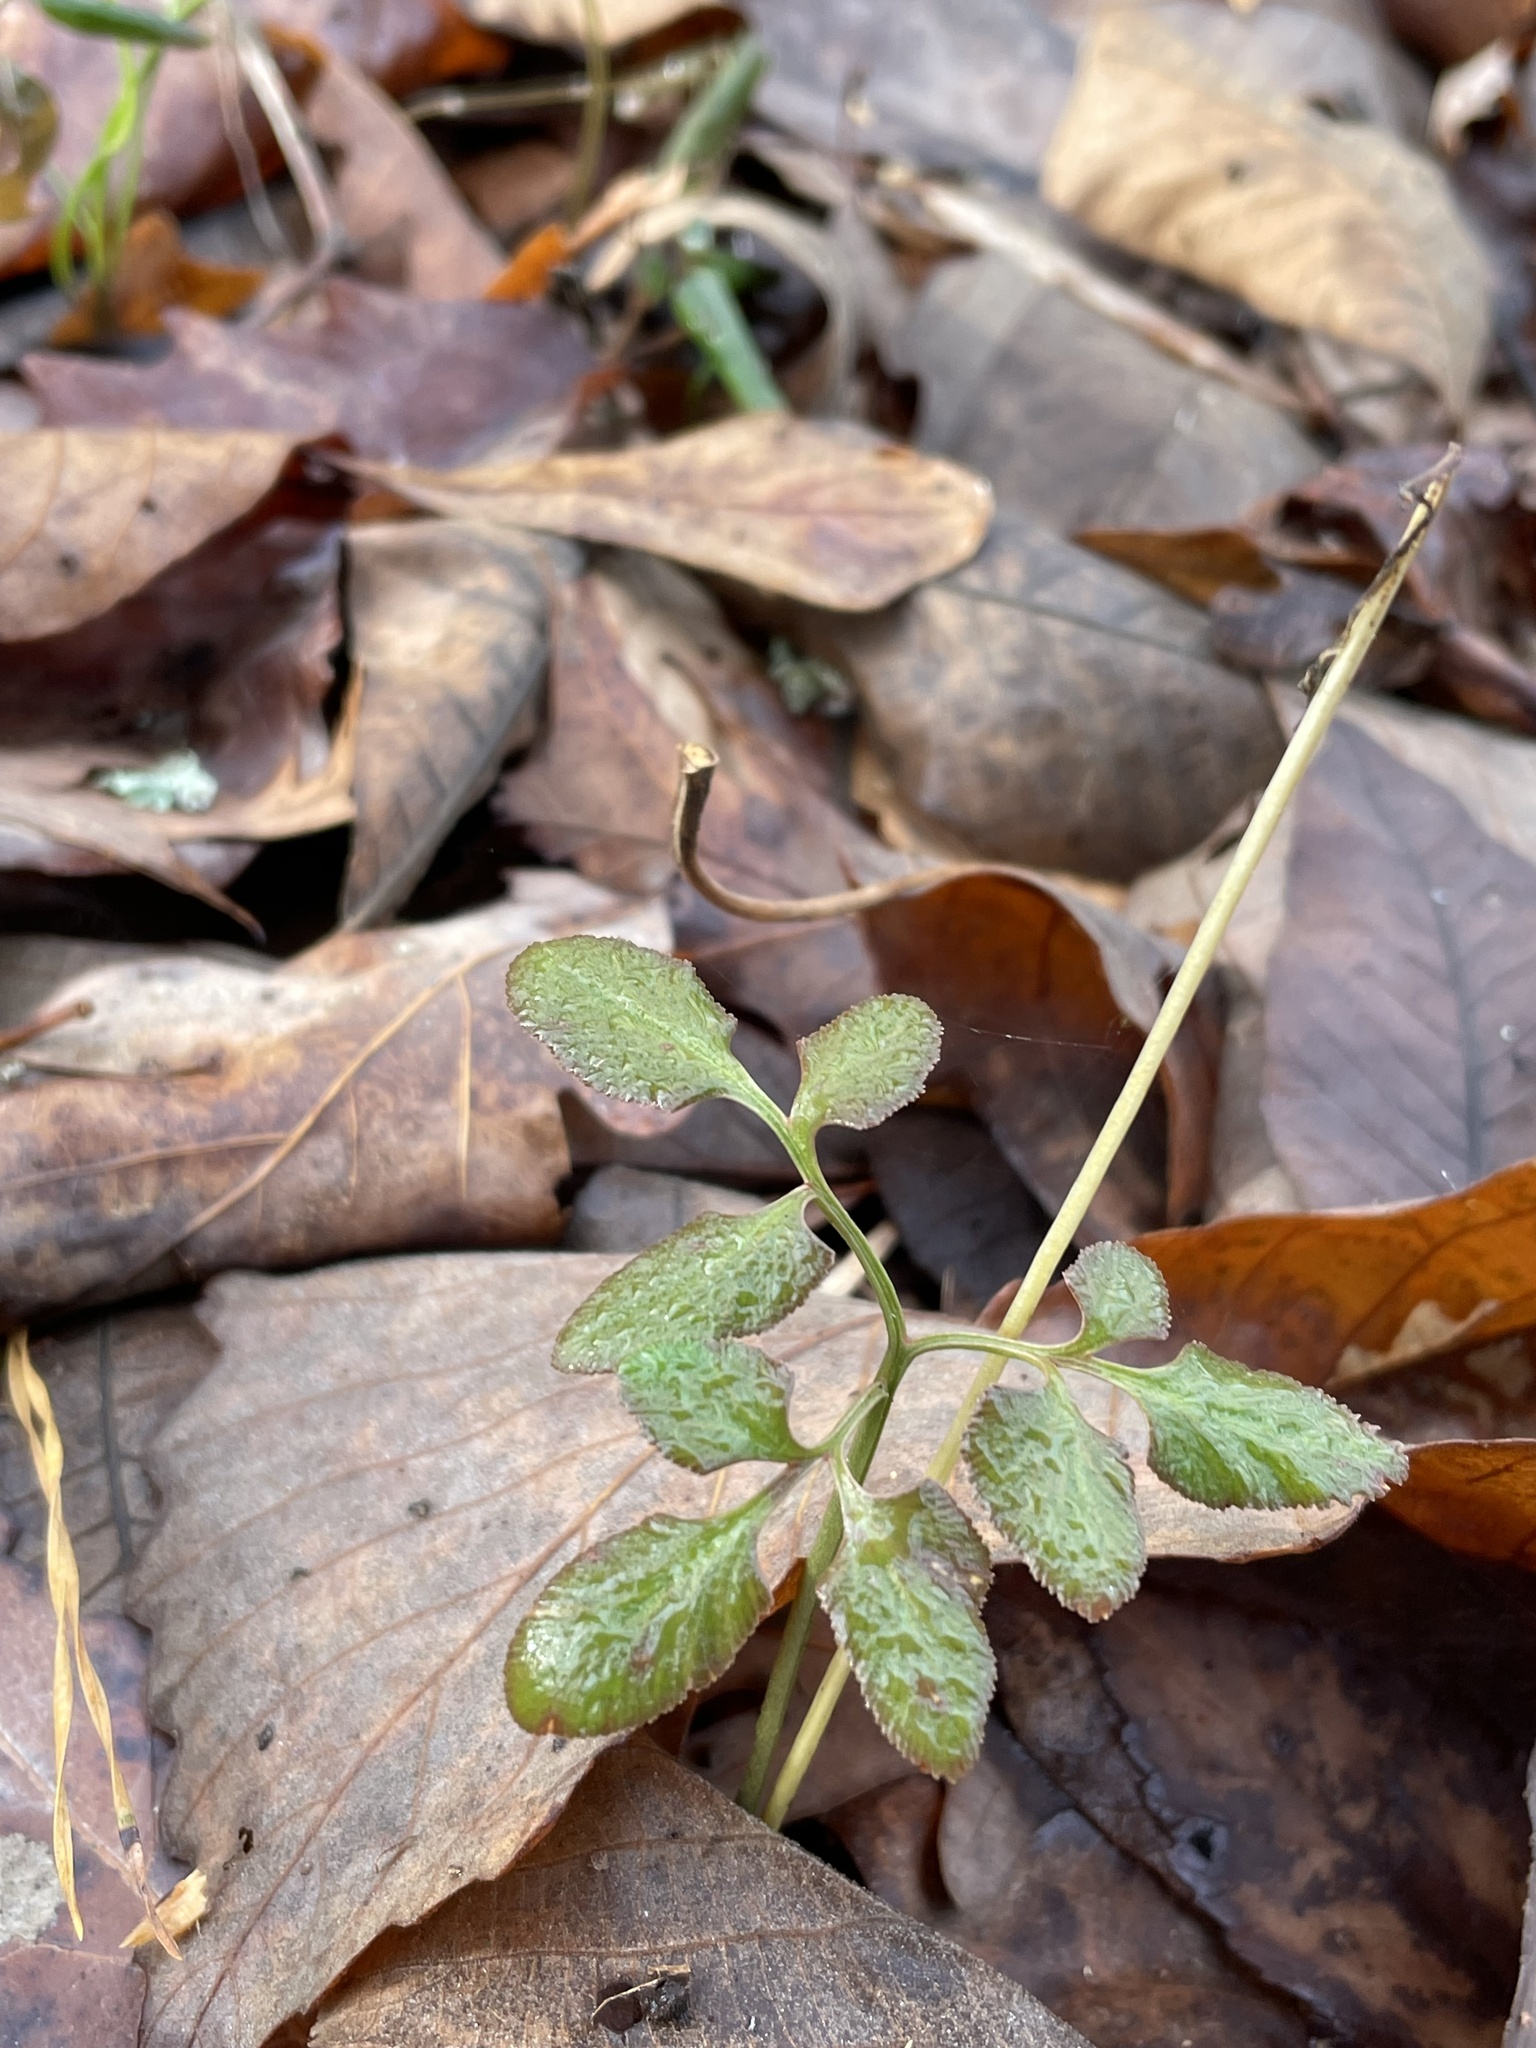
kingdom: Plantae
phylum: Tracheophyta
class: Polypodiopsida
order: Ophioglossales
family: Ophioglossaceae
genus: Sceptridium
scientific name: Sceptridium biternatum
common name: Sparse-lobed grapefern
